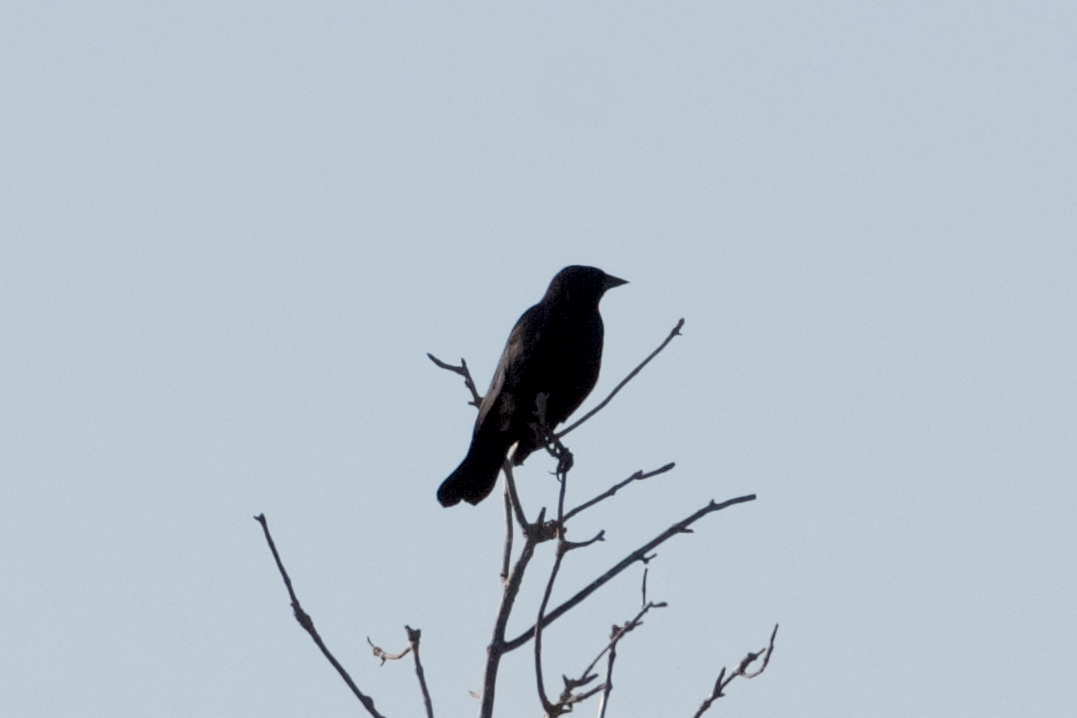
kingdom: Animalia
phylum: Chordata
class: Aves
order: Passeriformes
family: Corvidae
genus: Corvus
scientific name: Corvus brachyrhynchos
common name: American crow
